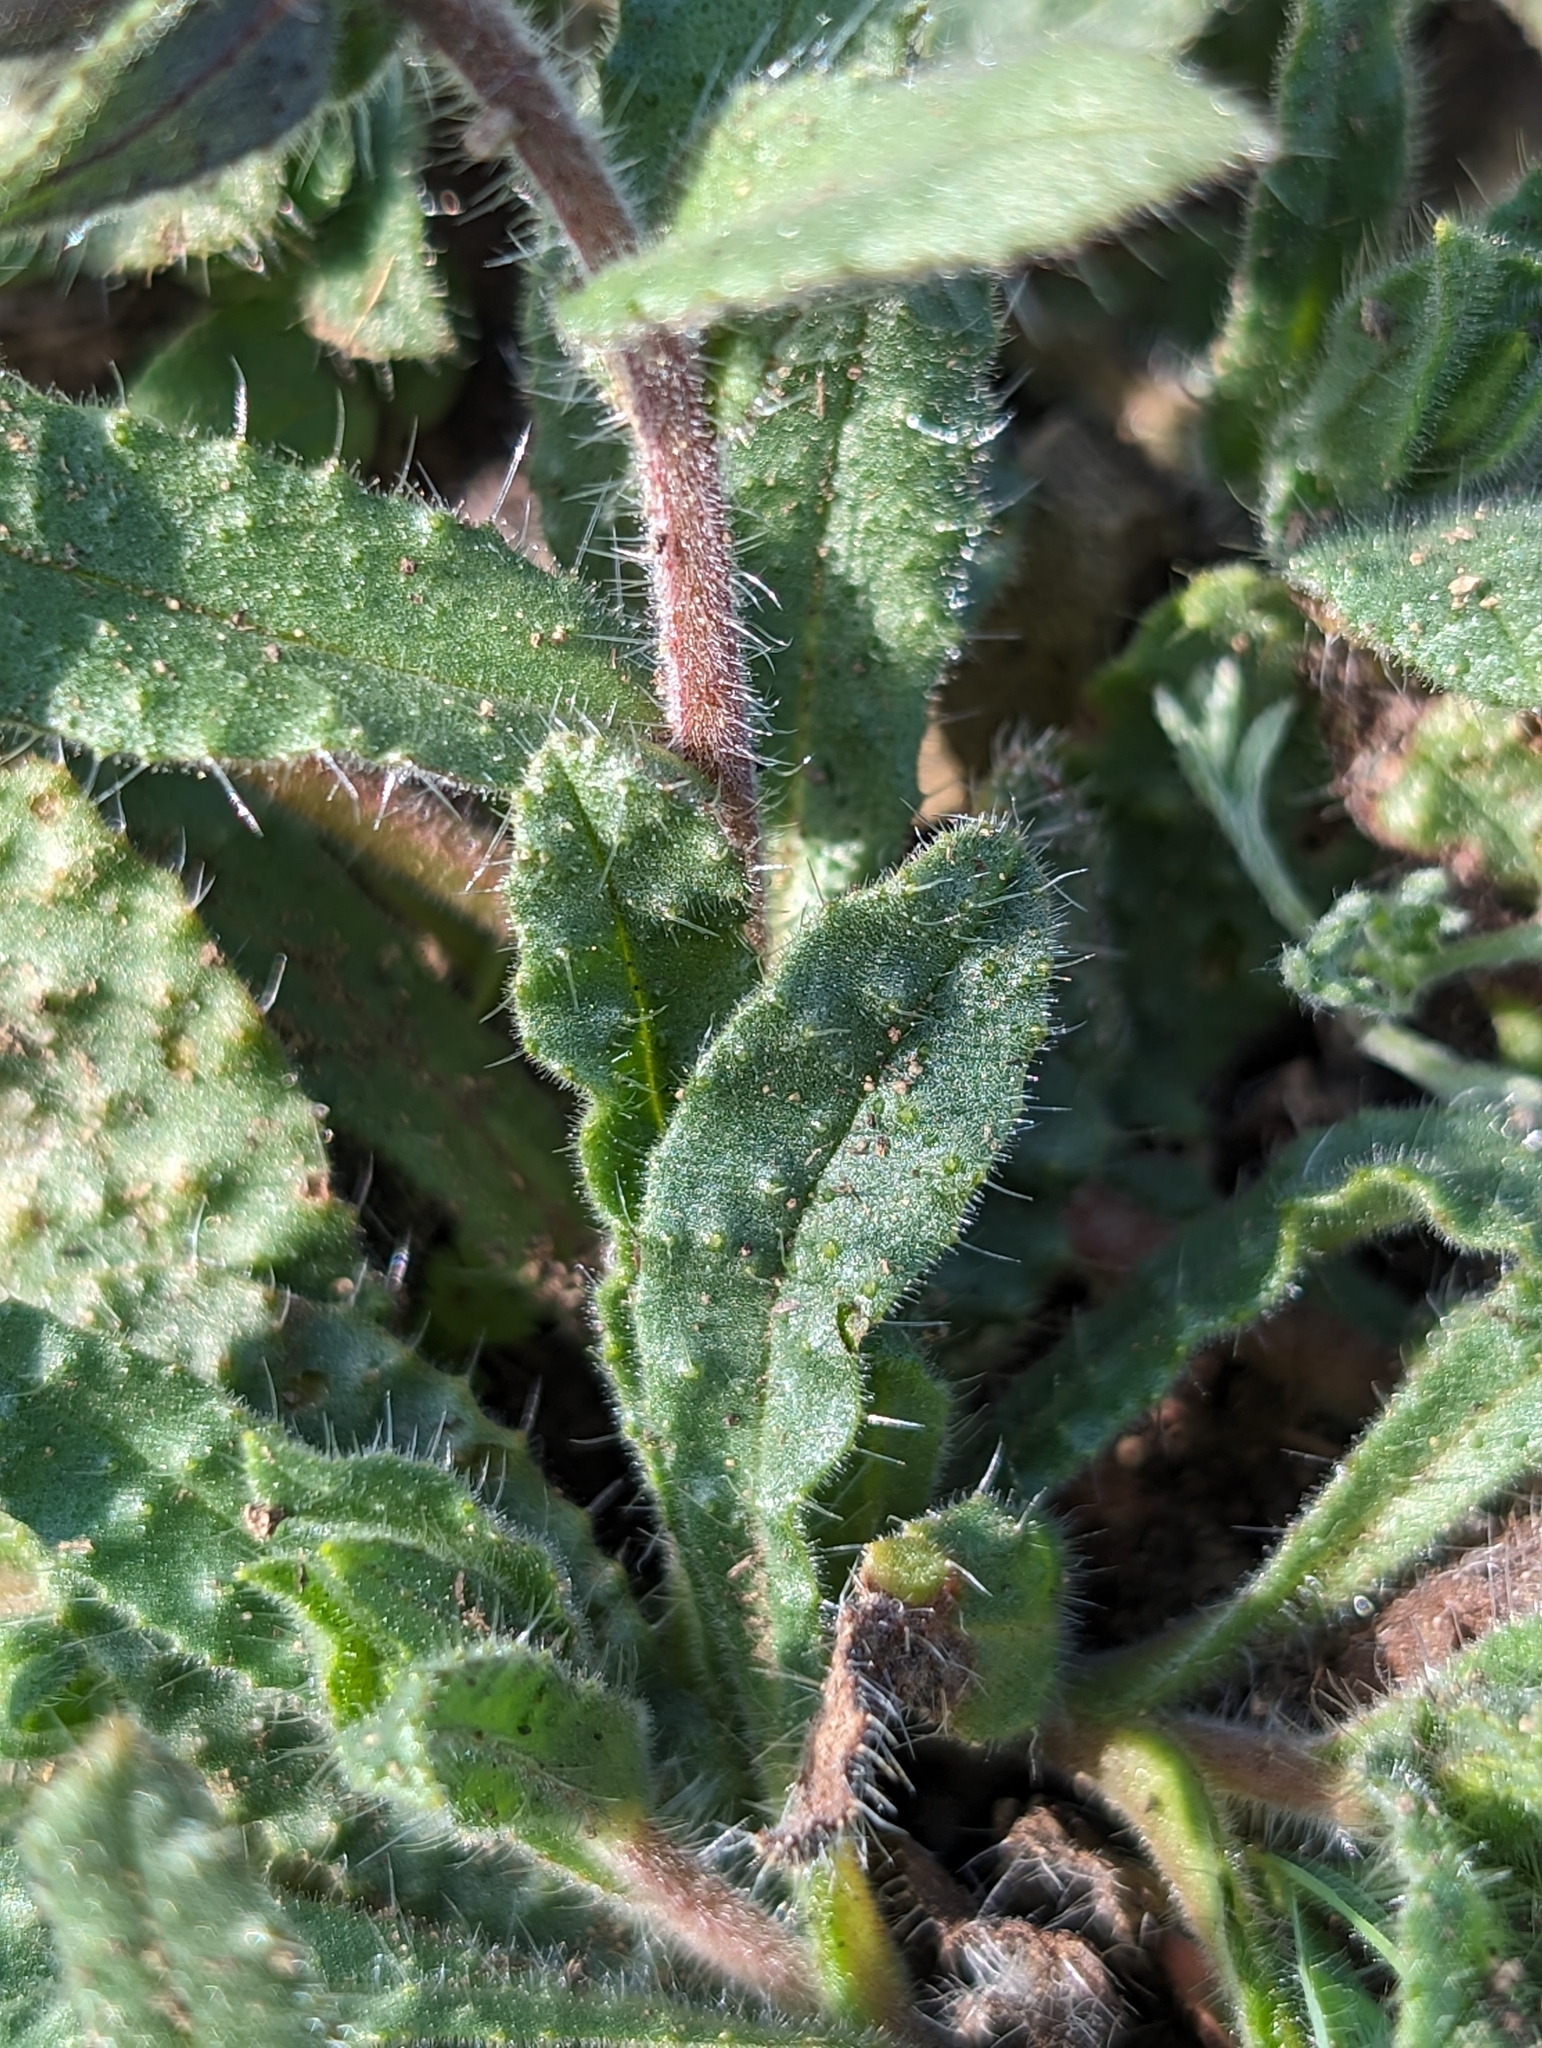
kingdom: Plantae
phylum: Tracheophyta
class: Magnoliopsida
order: Boraginales
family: Boraginaceae
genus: Nonea
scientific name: Nonea lutea
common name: Yellow nonea
